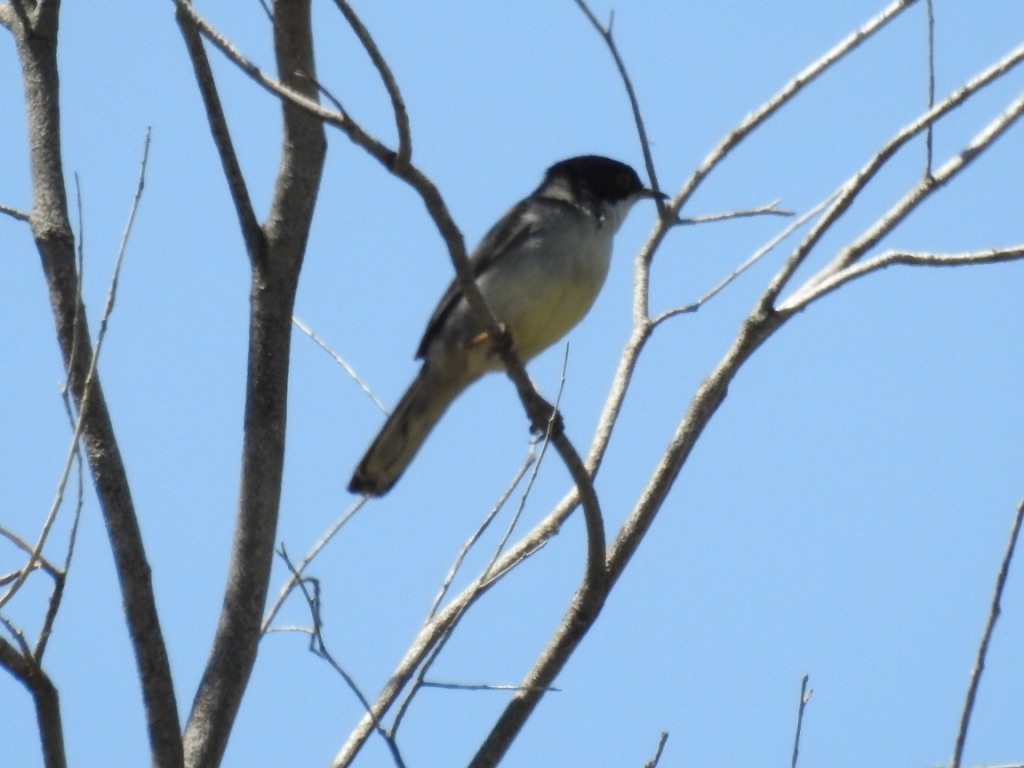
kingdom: Animalia
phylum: Chordata
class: Aves
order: Passeriformes
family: Sylviidae
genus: Curruca
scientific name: Curruca melanocephala
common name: Sardinian warbler
